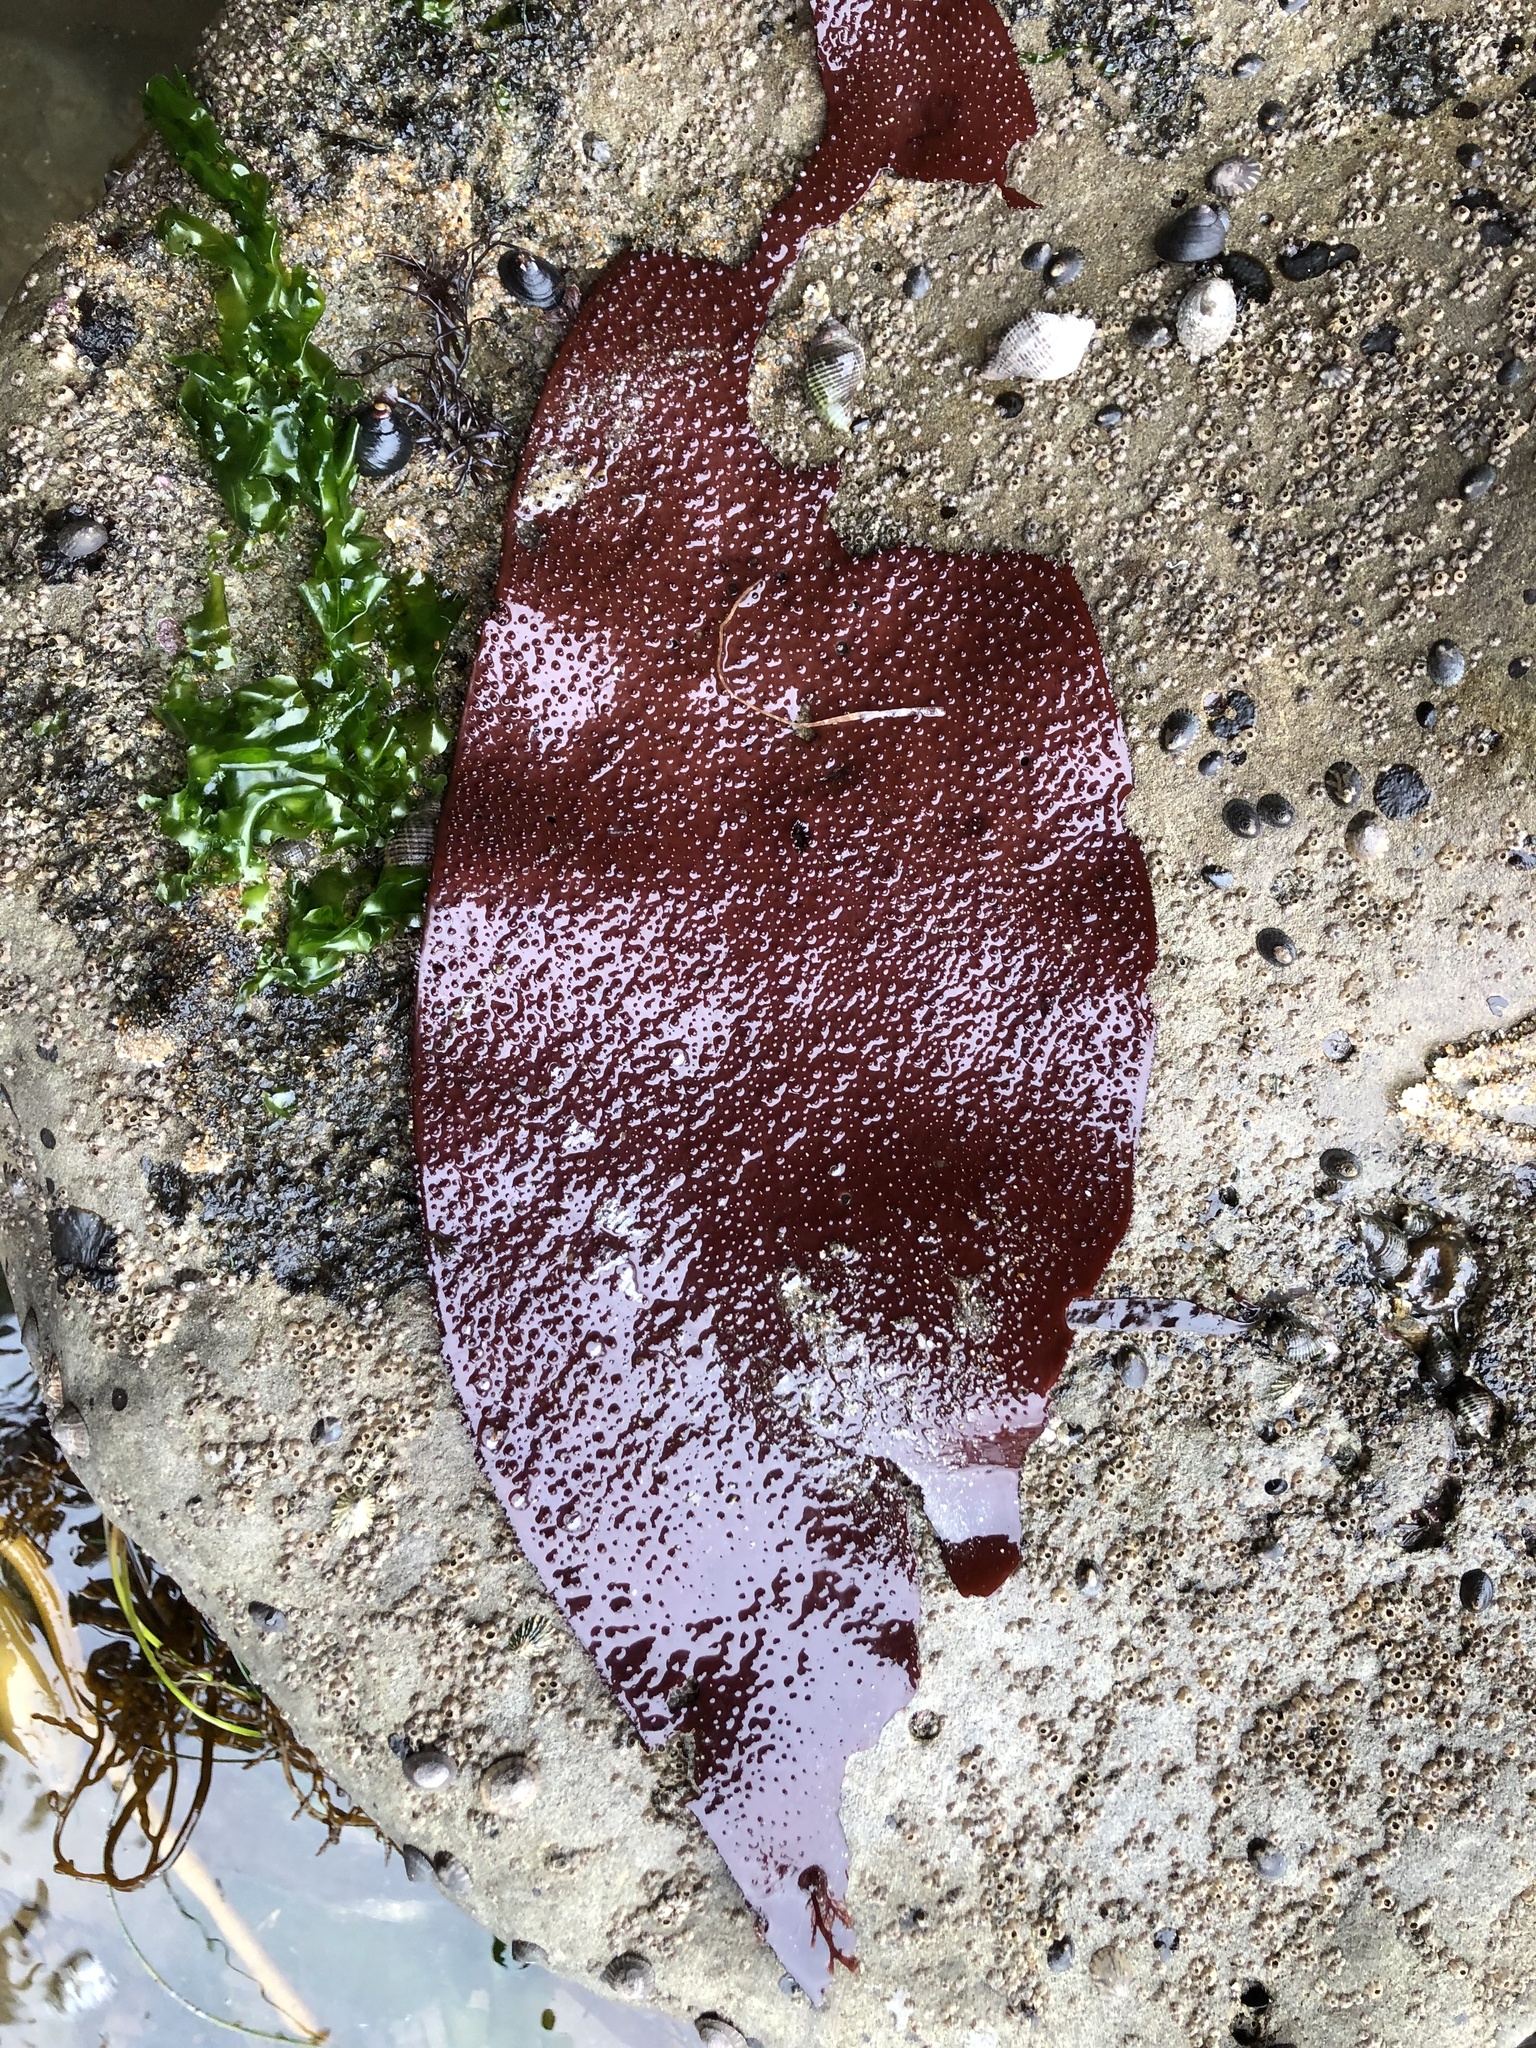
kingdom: Plantae
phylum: Rhodophyta
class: Florideophyceae
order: Gigartinales
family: Gigartinaceae
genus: Chondracanthus
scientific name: Chondracanthus exasperatus
